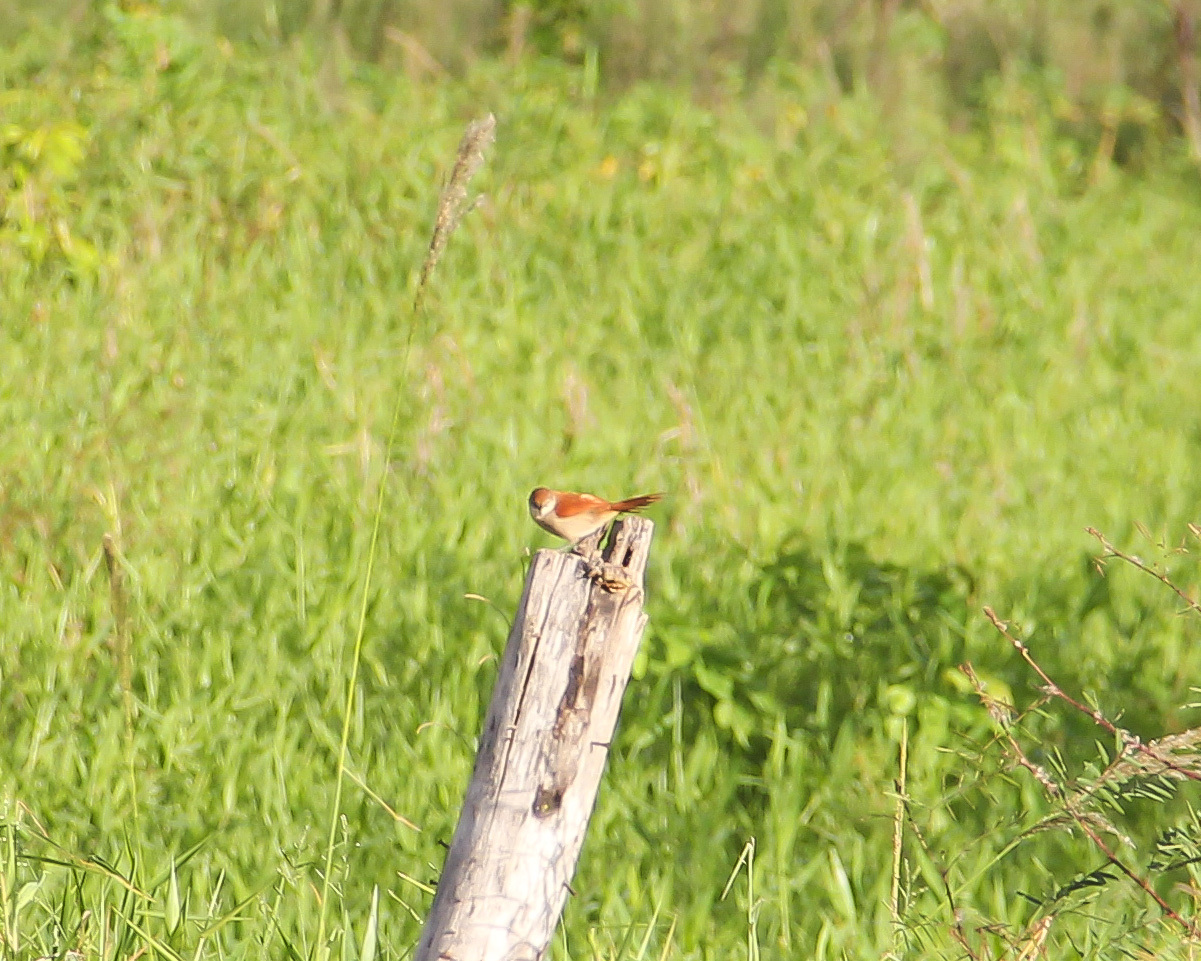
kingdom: Animalia
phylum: Chordata
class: Aves
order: Passeriformes
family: Furnariidae
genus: Certhiaxis
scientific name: Certhiaxis cinnamomeus
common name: Yellow-chinned spinetail
